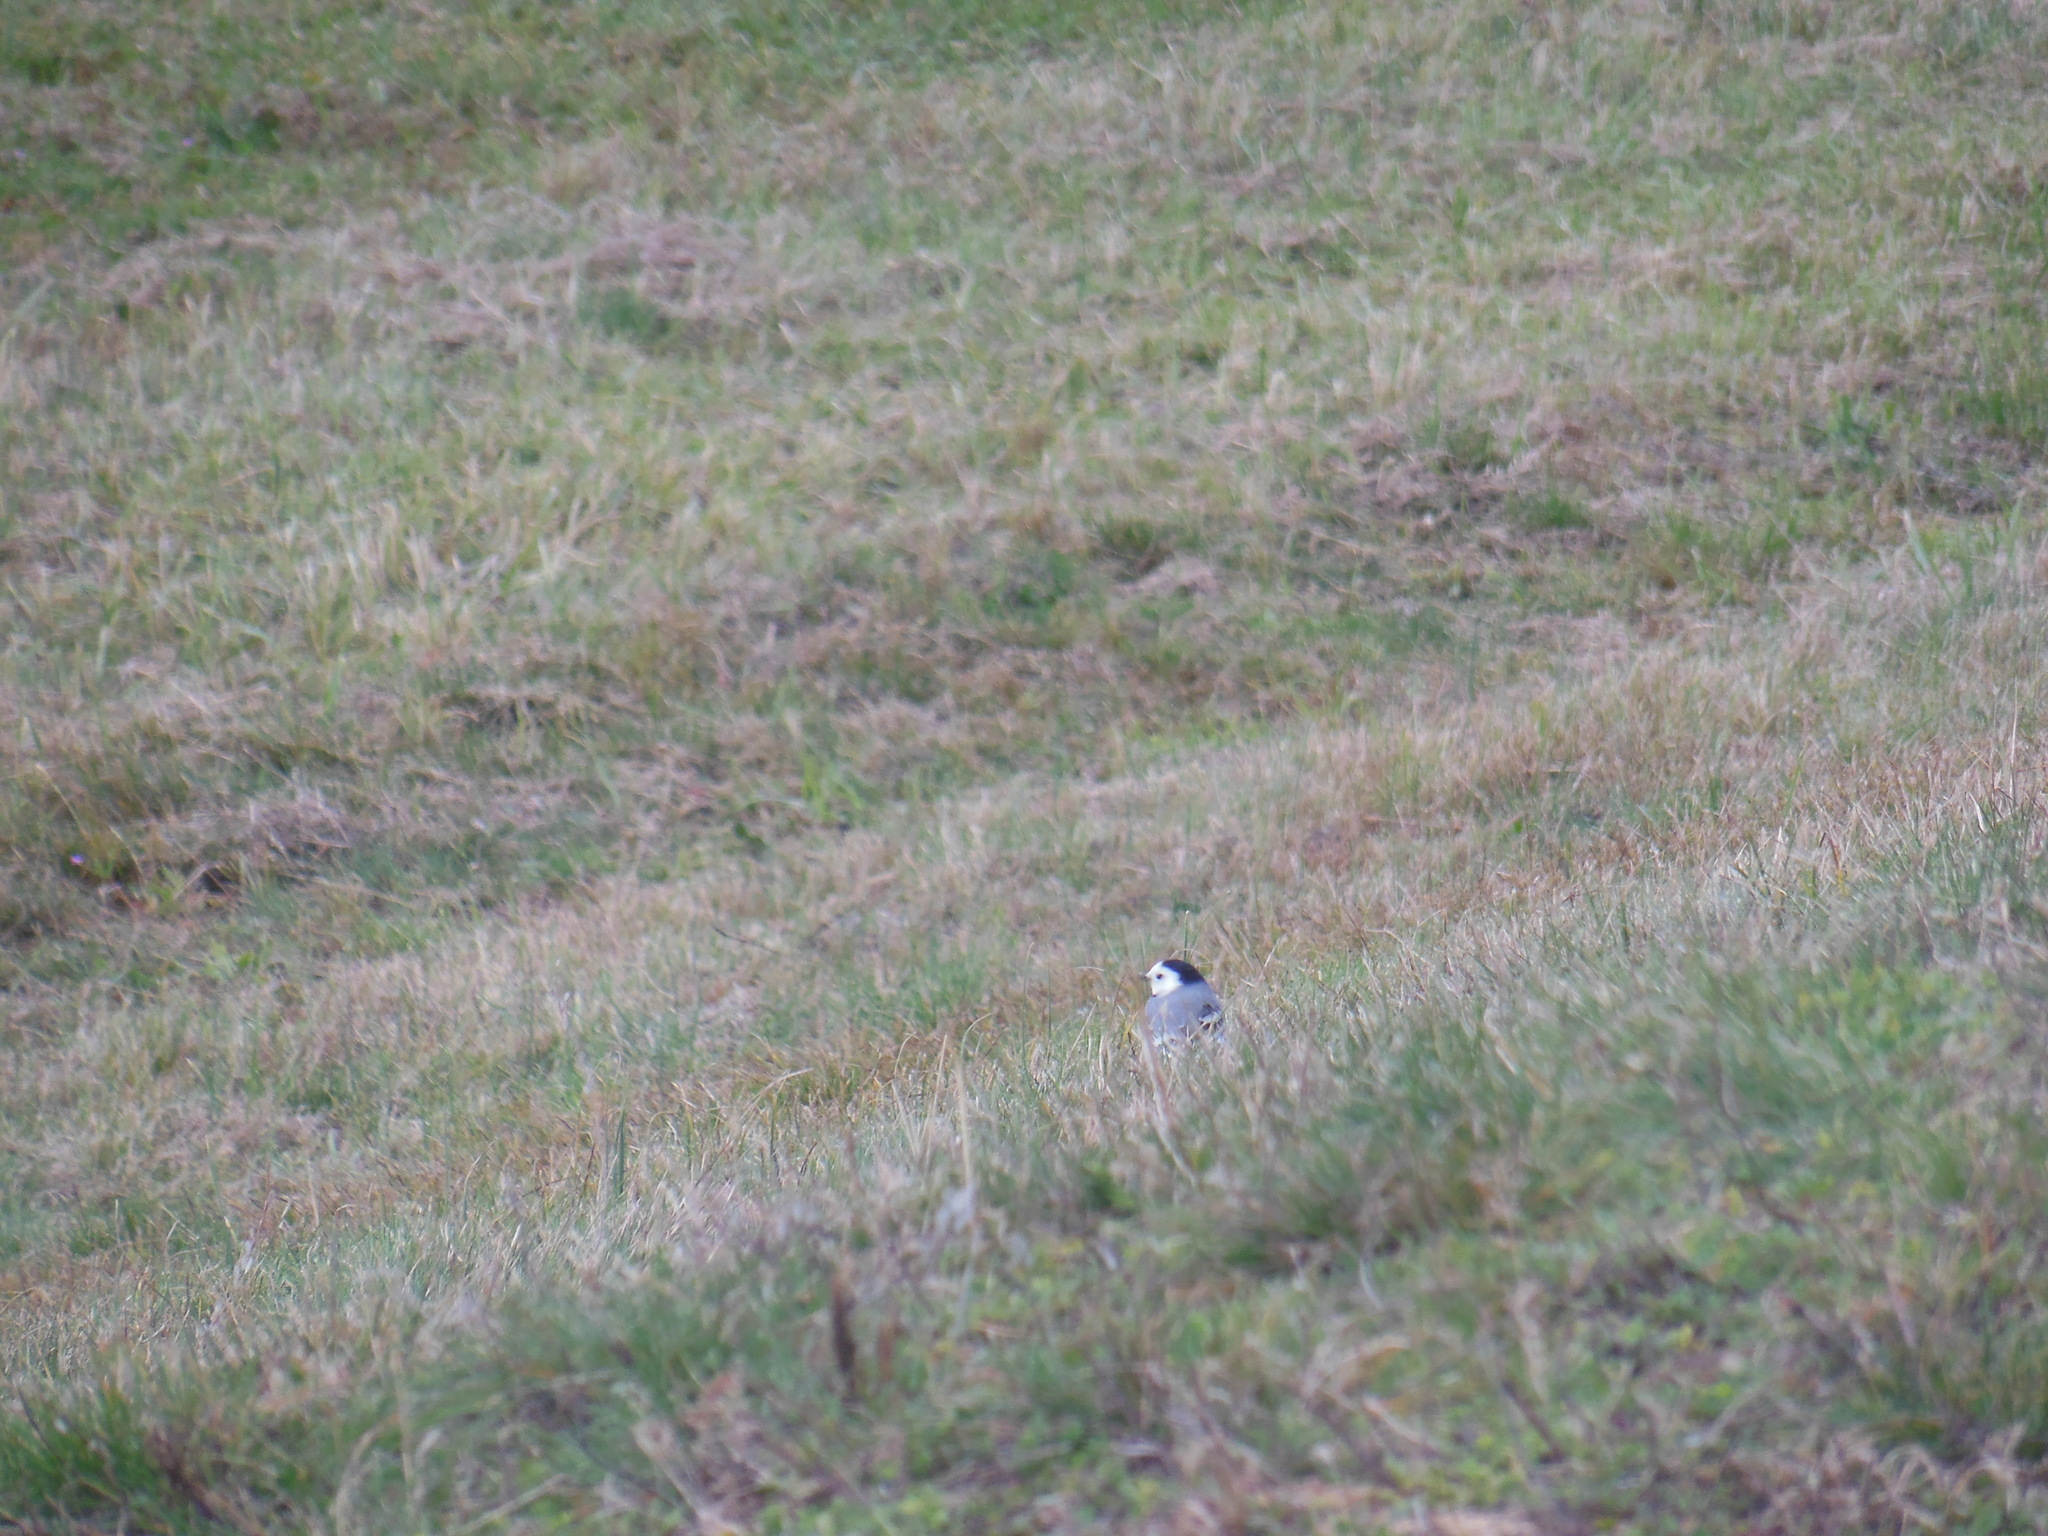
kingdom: Animalia
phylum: Chordata
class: Aves
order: Passeriformes
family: Motacillidae
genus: Motacilla
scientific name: Motacilla alba
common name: White wagtail
